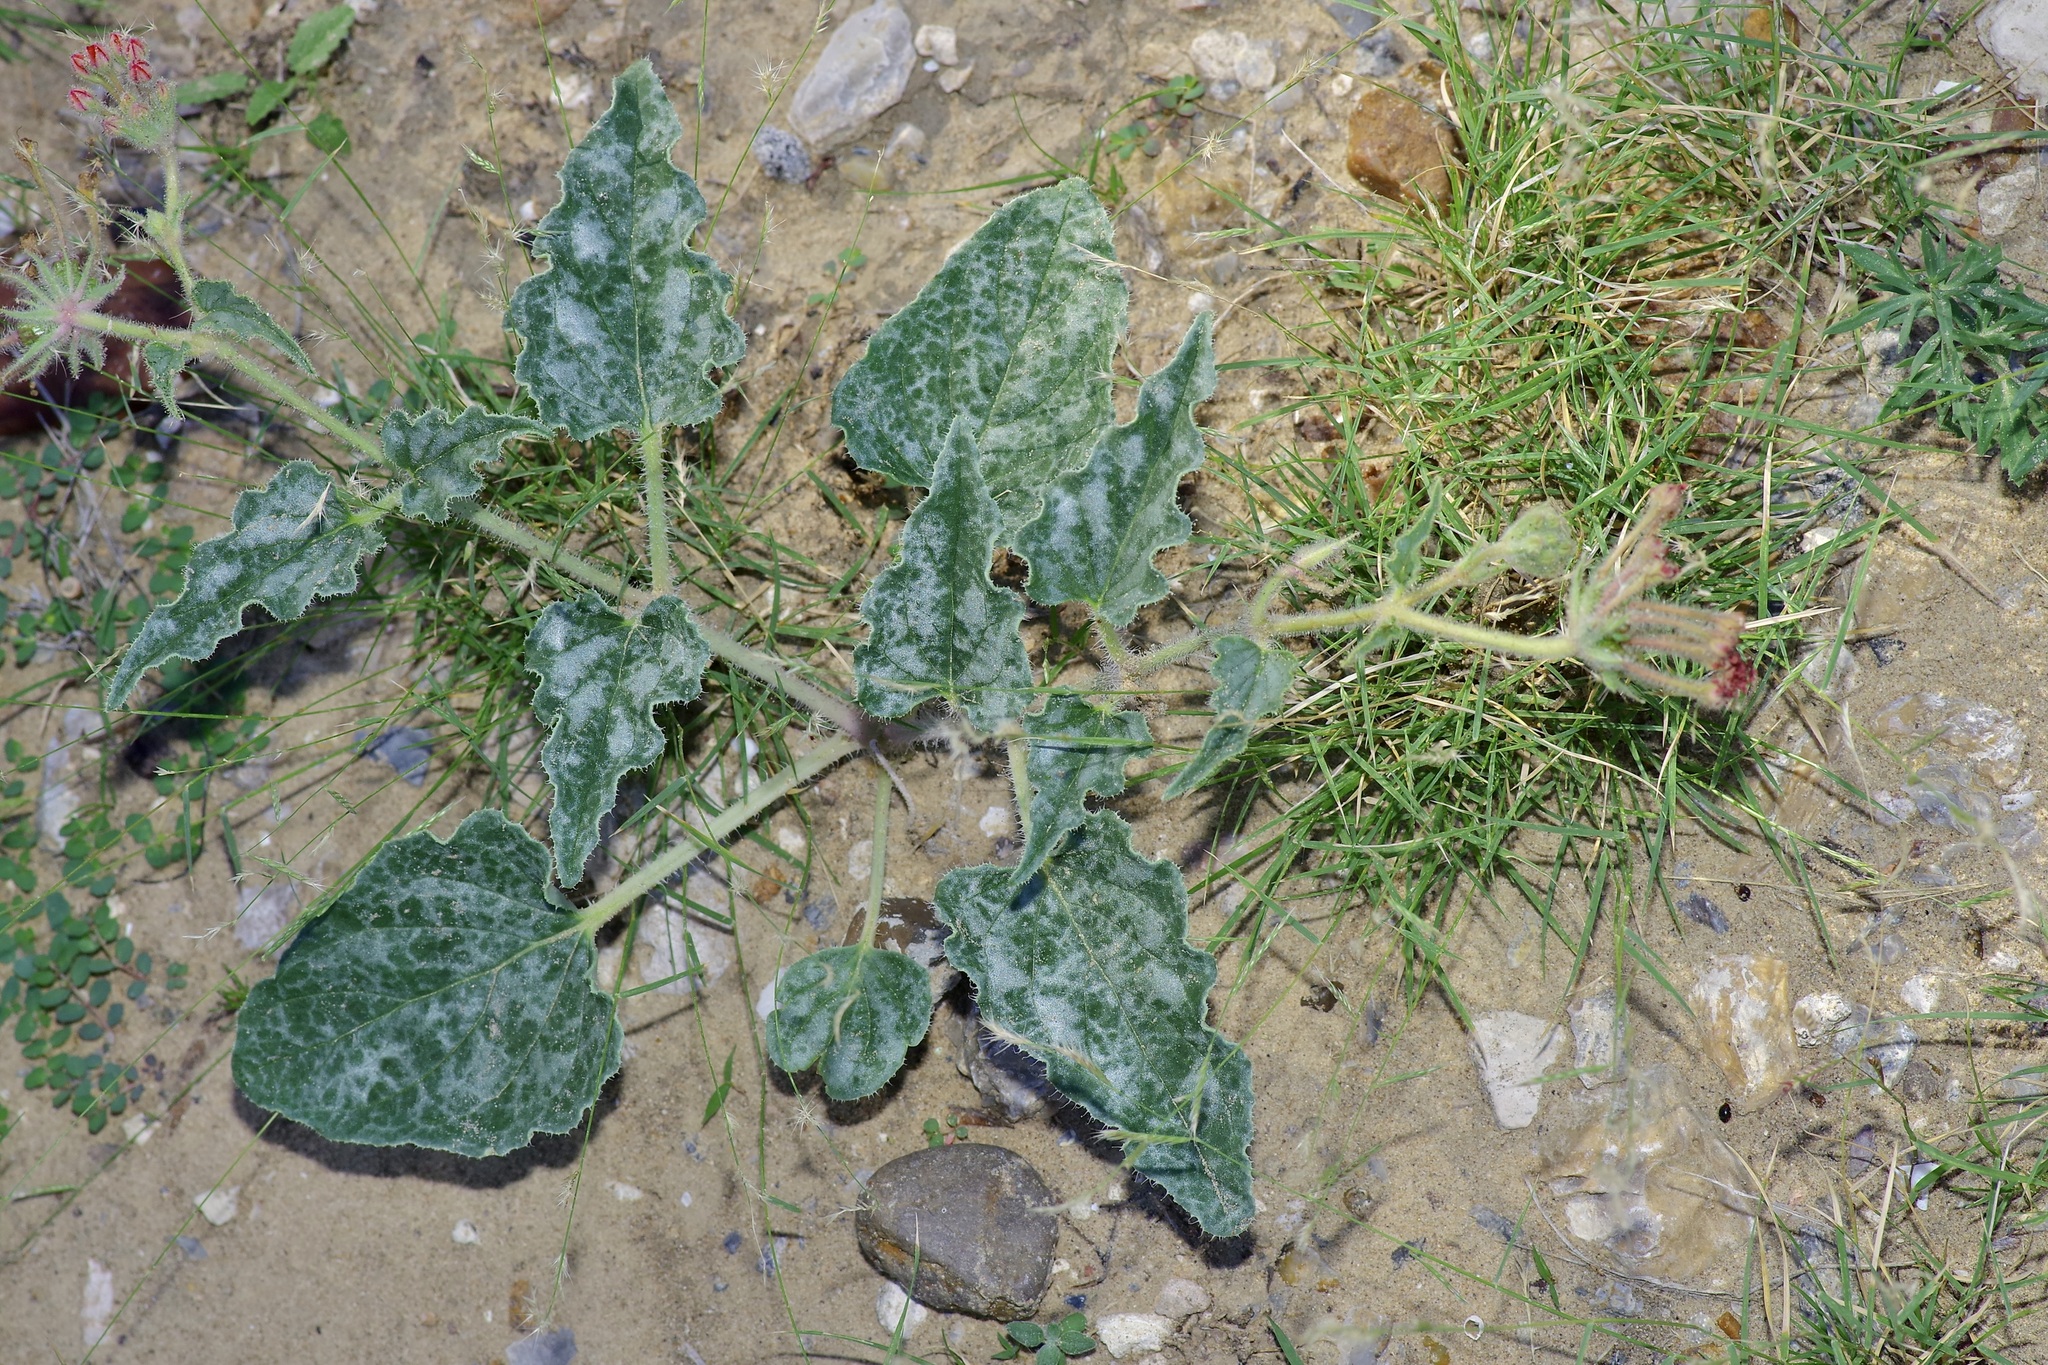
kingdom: Plantae
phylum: Tracheophyta
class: Magnoliopsida
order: Caryophyllales
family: Nyctaginaceae
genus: Nyctaginia
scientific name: Nyctaginia capitata
